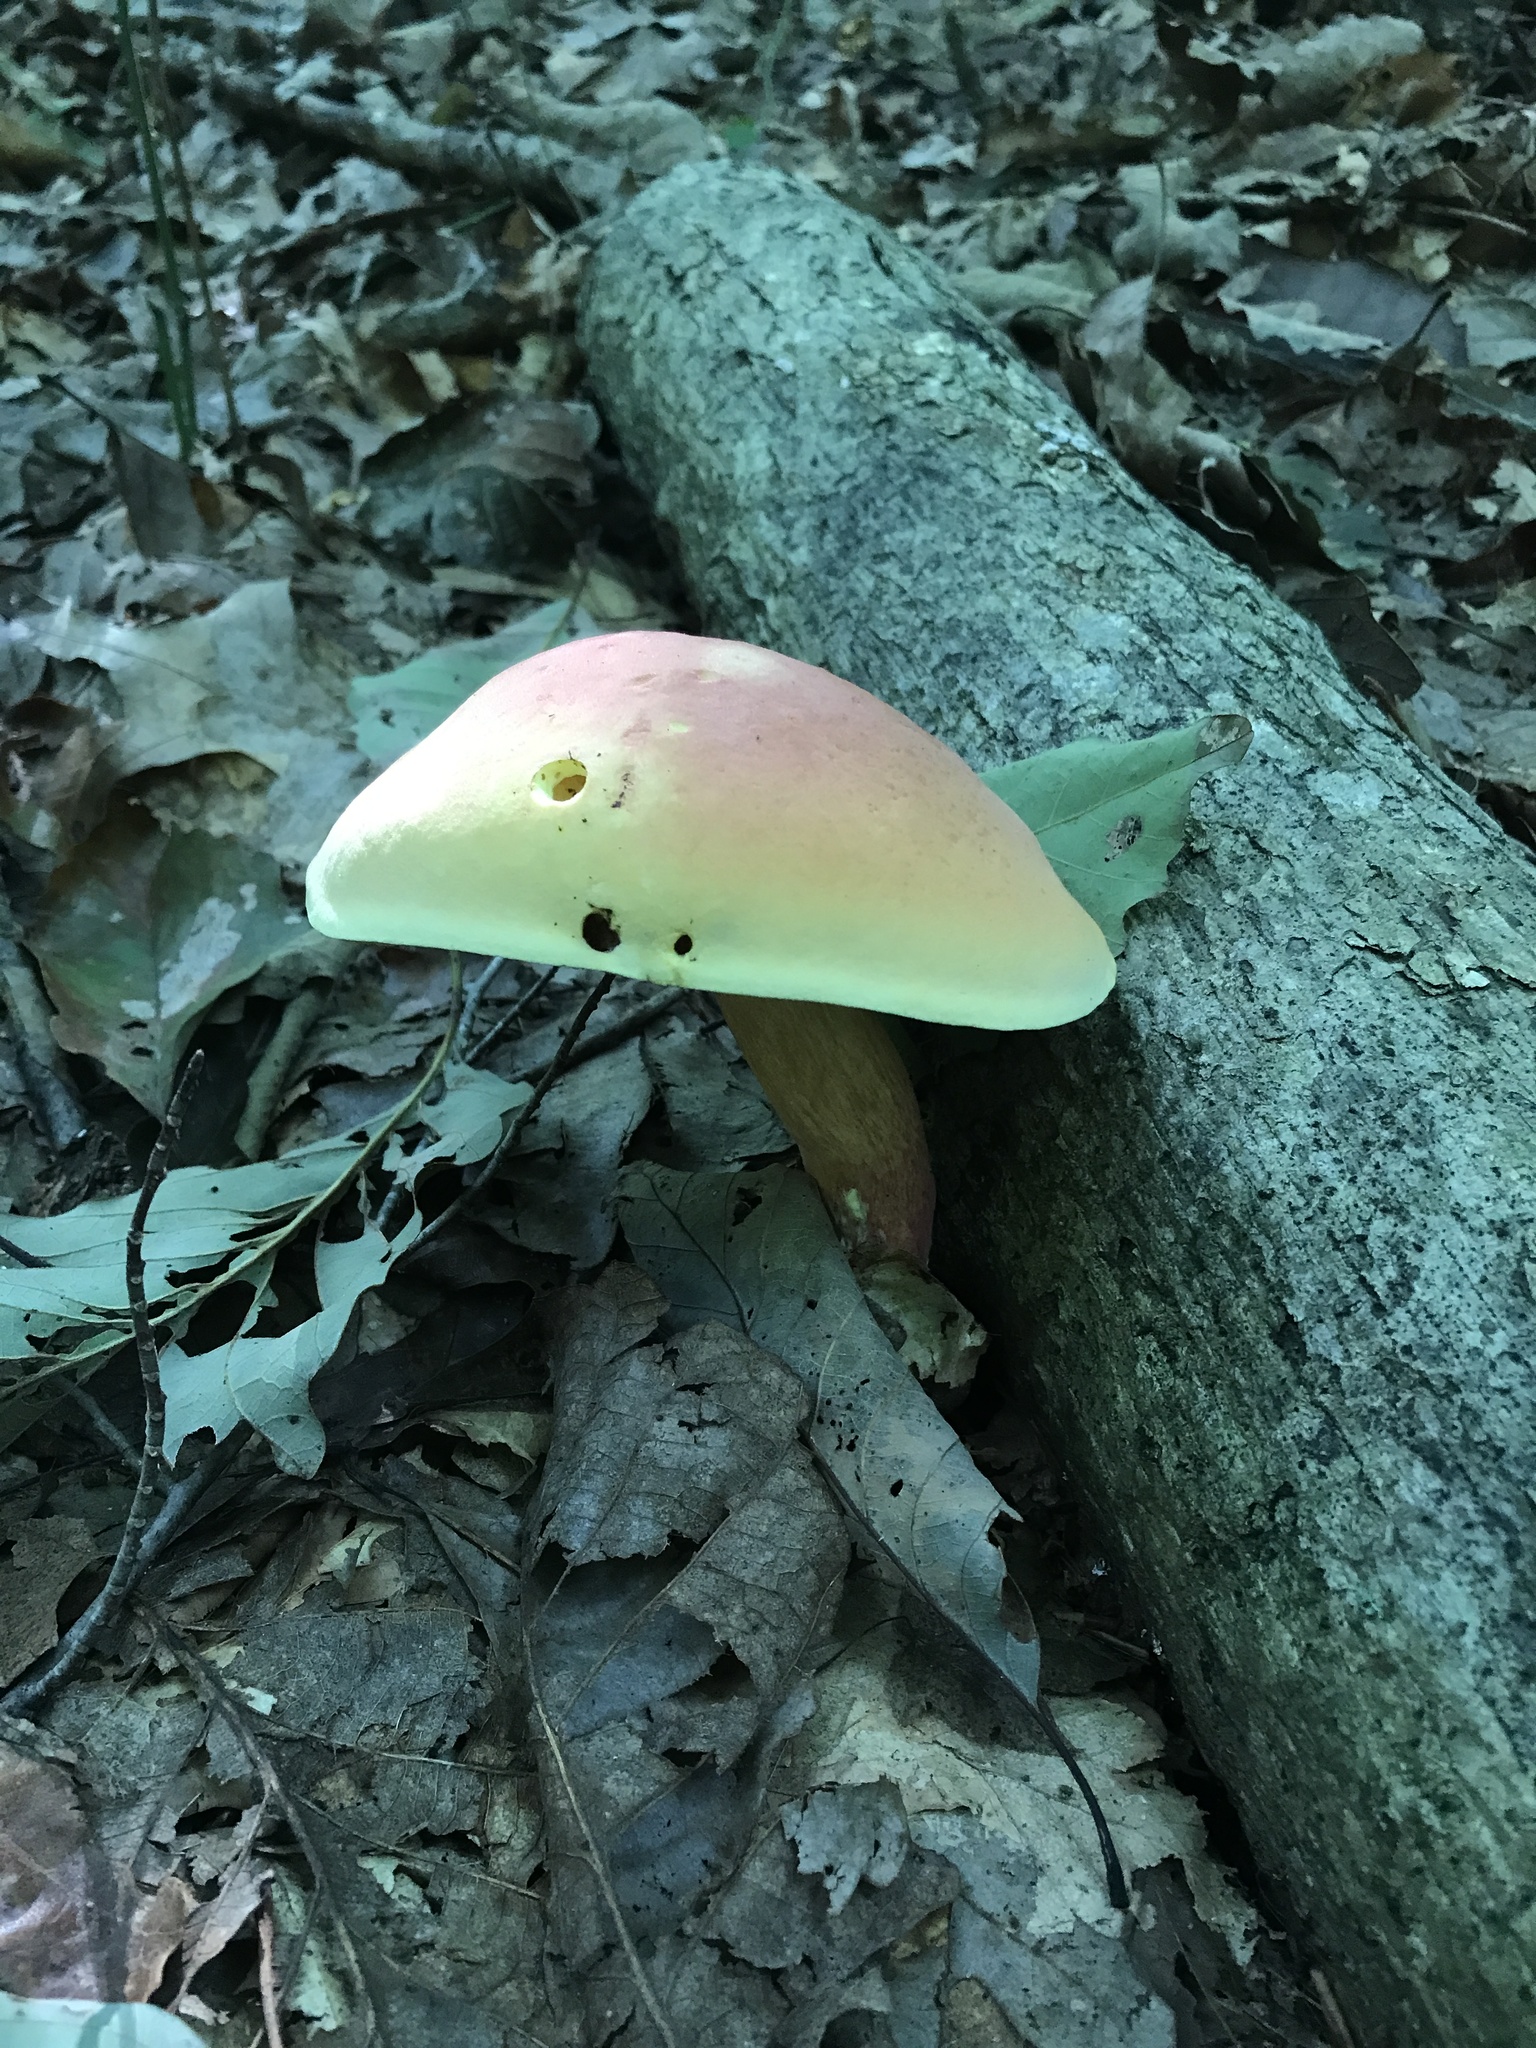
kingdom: Fungi
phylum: Basidiomycota
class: Agaricomycetes
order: Boletales
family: Boletaceae
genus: Lanmaoa
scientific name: Lanmaoa pallidorosea
